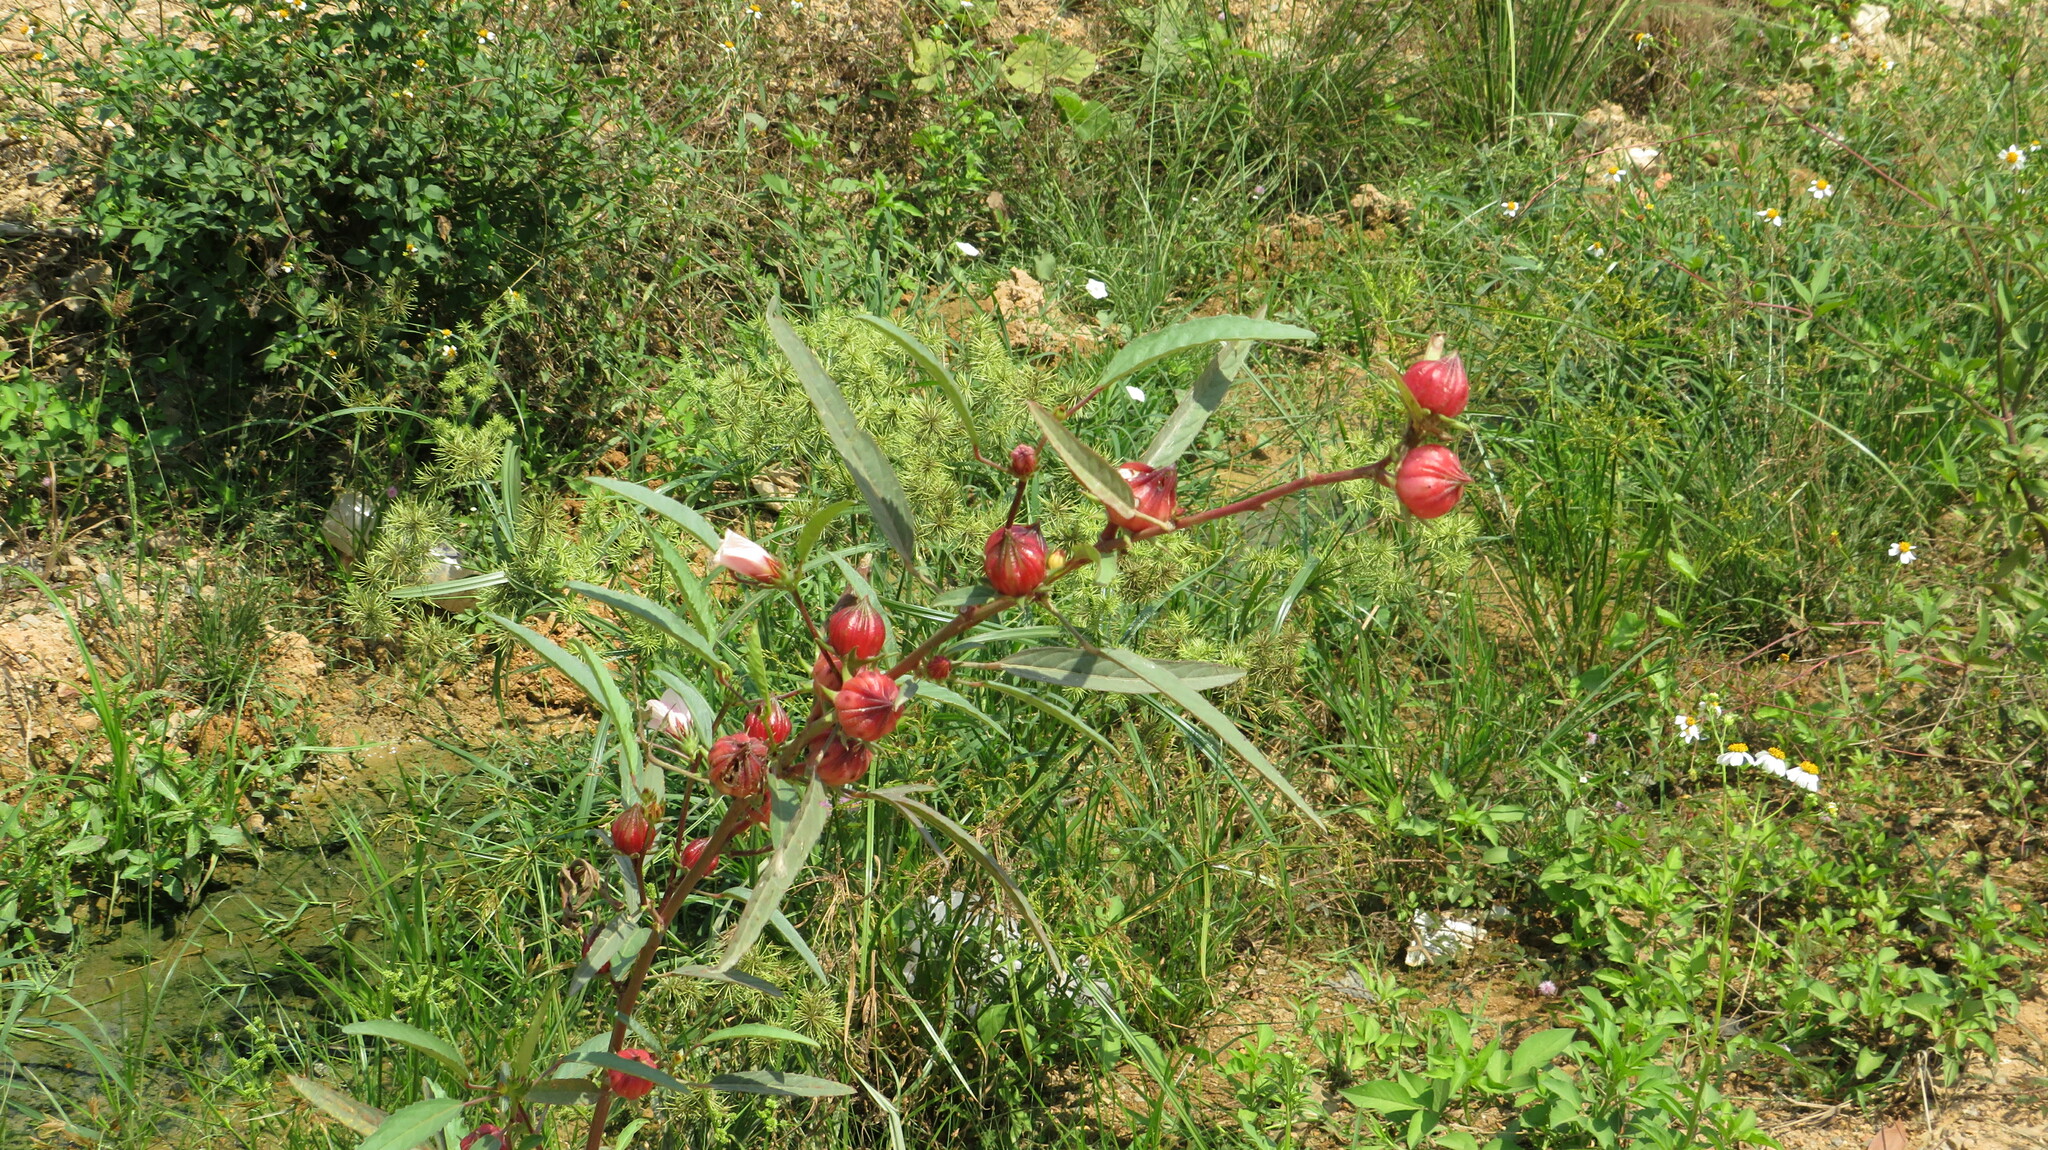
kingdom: Plantae
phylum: Tracheophyta
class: Magnoliopsida
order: Malvales
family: Malvaceae
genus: Hibiscus
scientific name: Hibiscus sabdariffa
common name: Roselle
